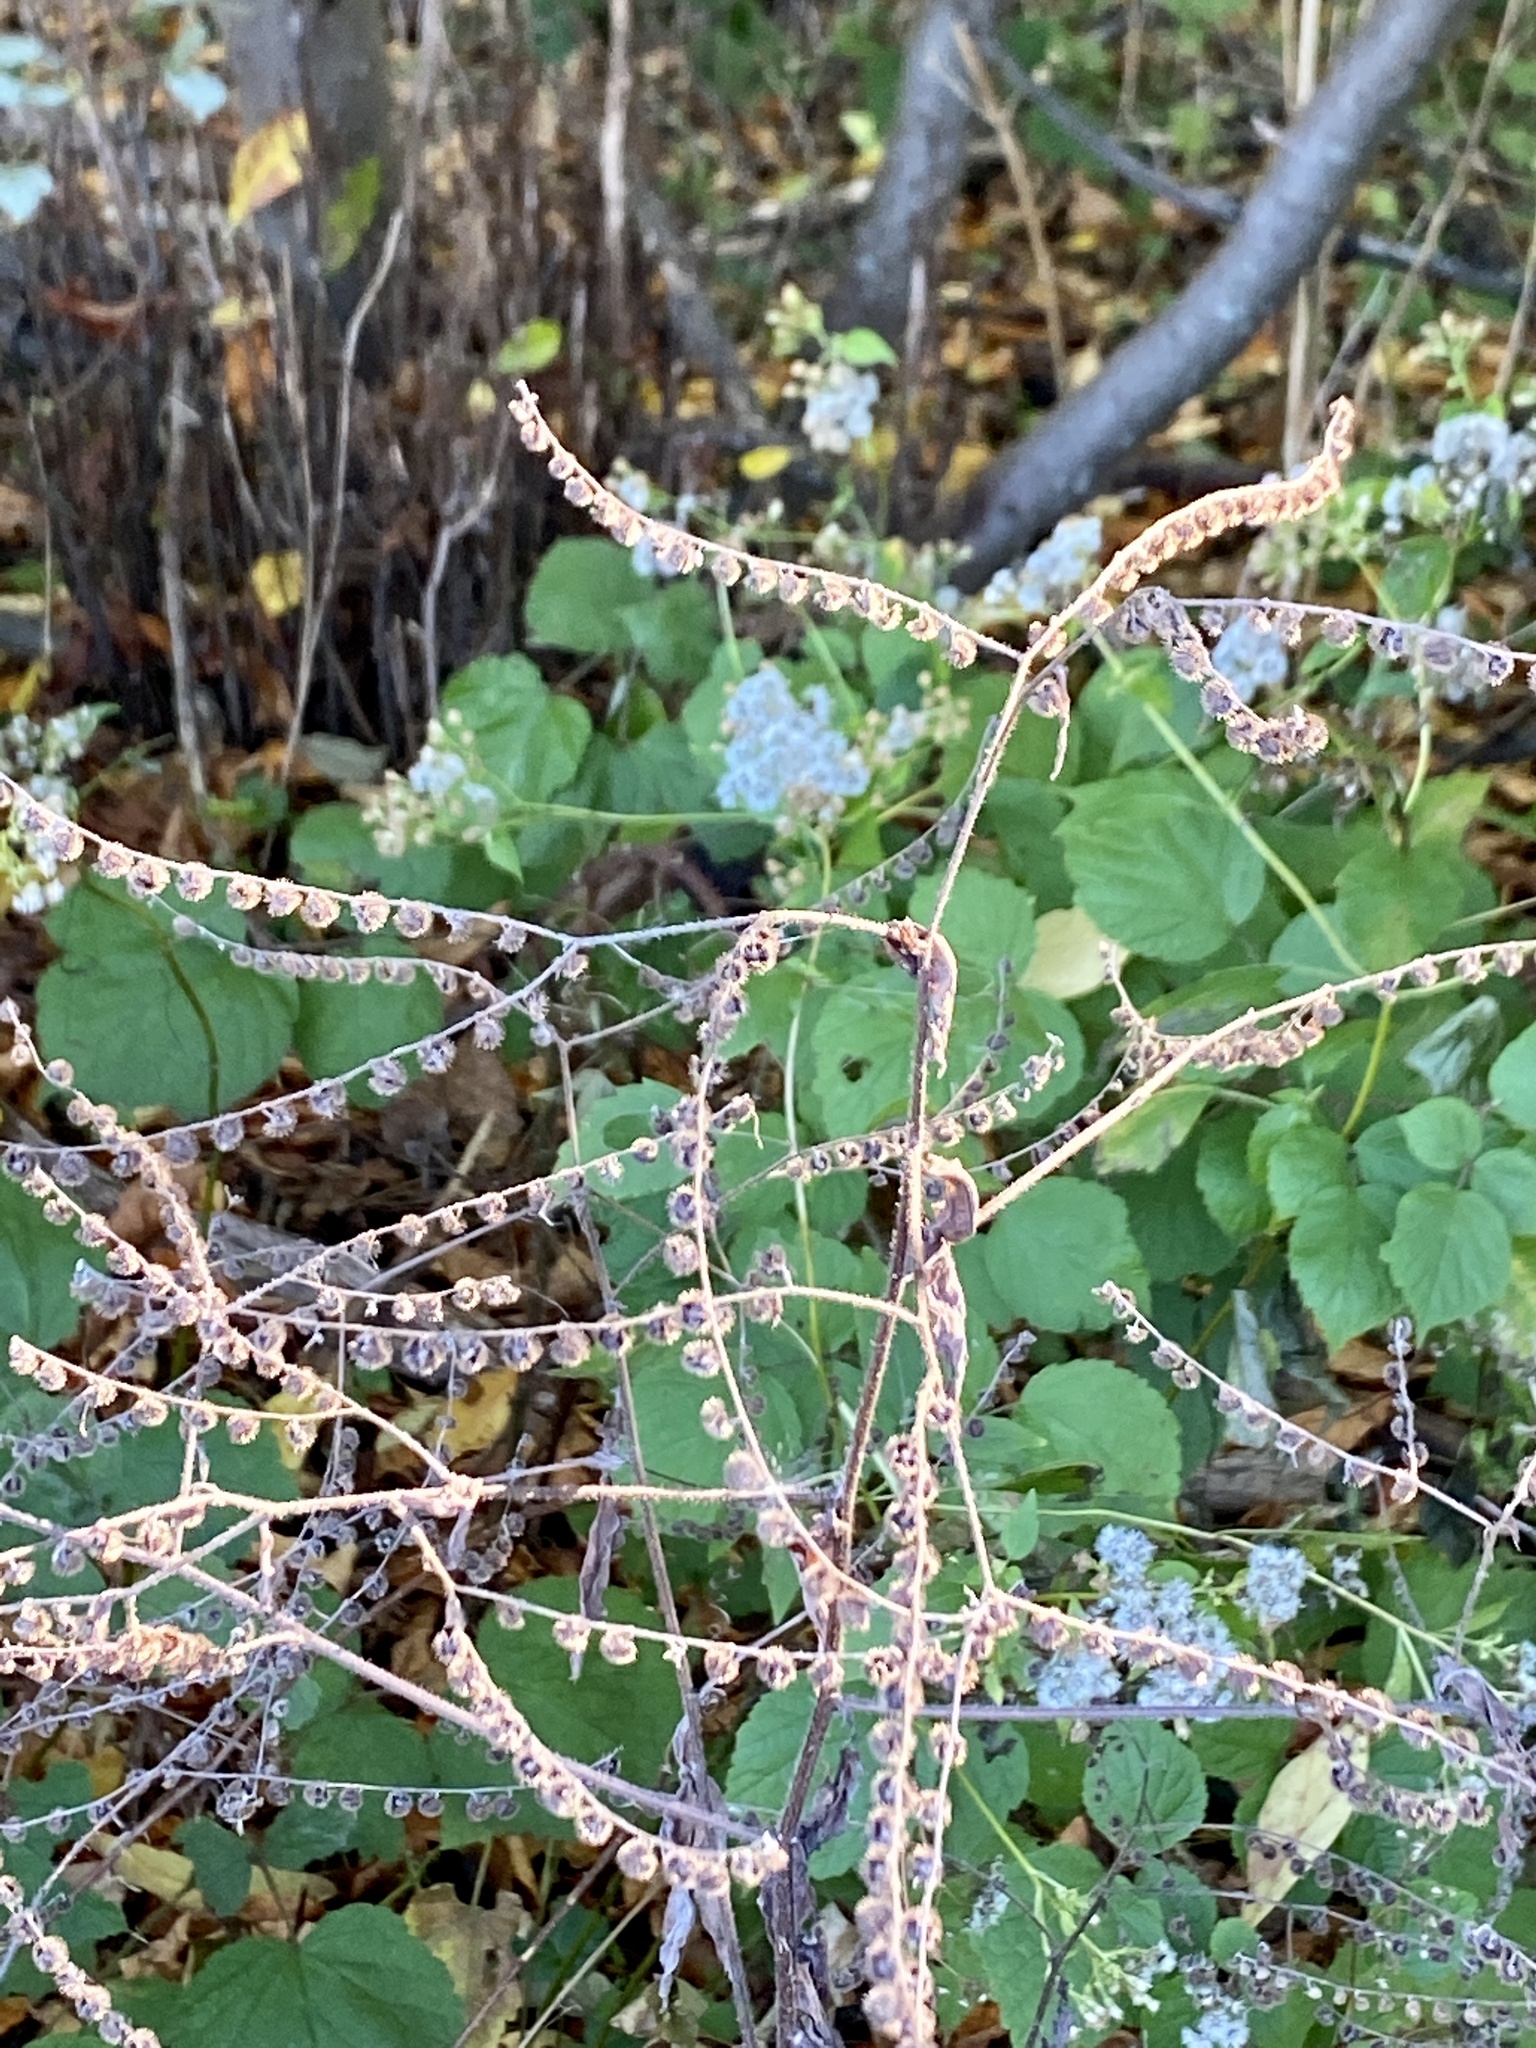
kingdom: Plantae
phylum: Tracheophyta
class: Magnoliopsida
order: Boraginales
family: Boraginaceae
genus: Hackelia
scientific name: Hackelia virginiana
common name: Beggar's-lice
